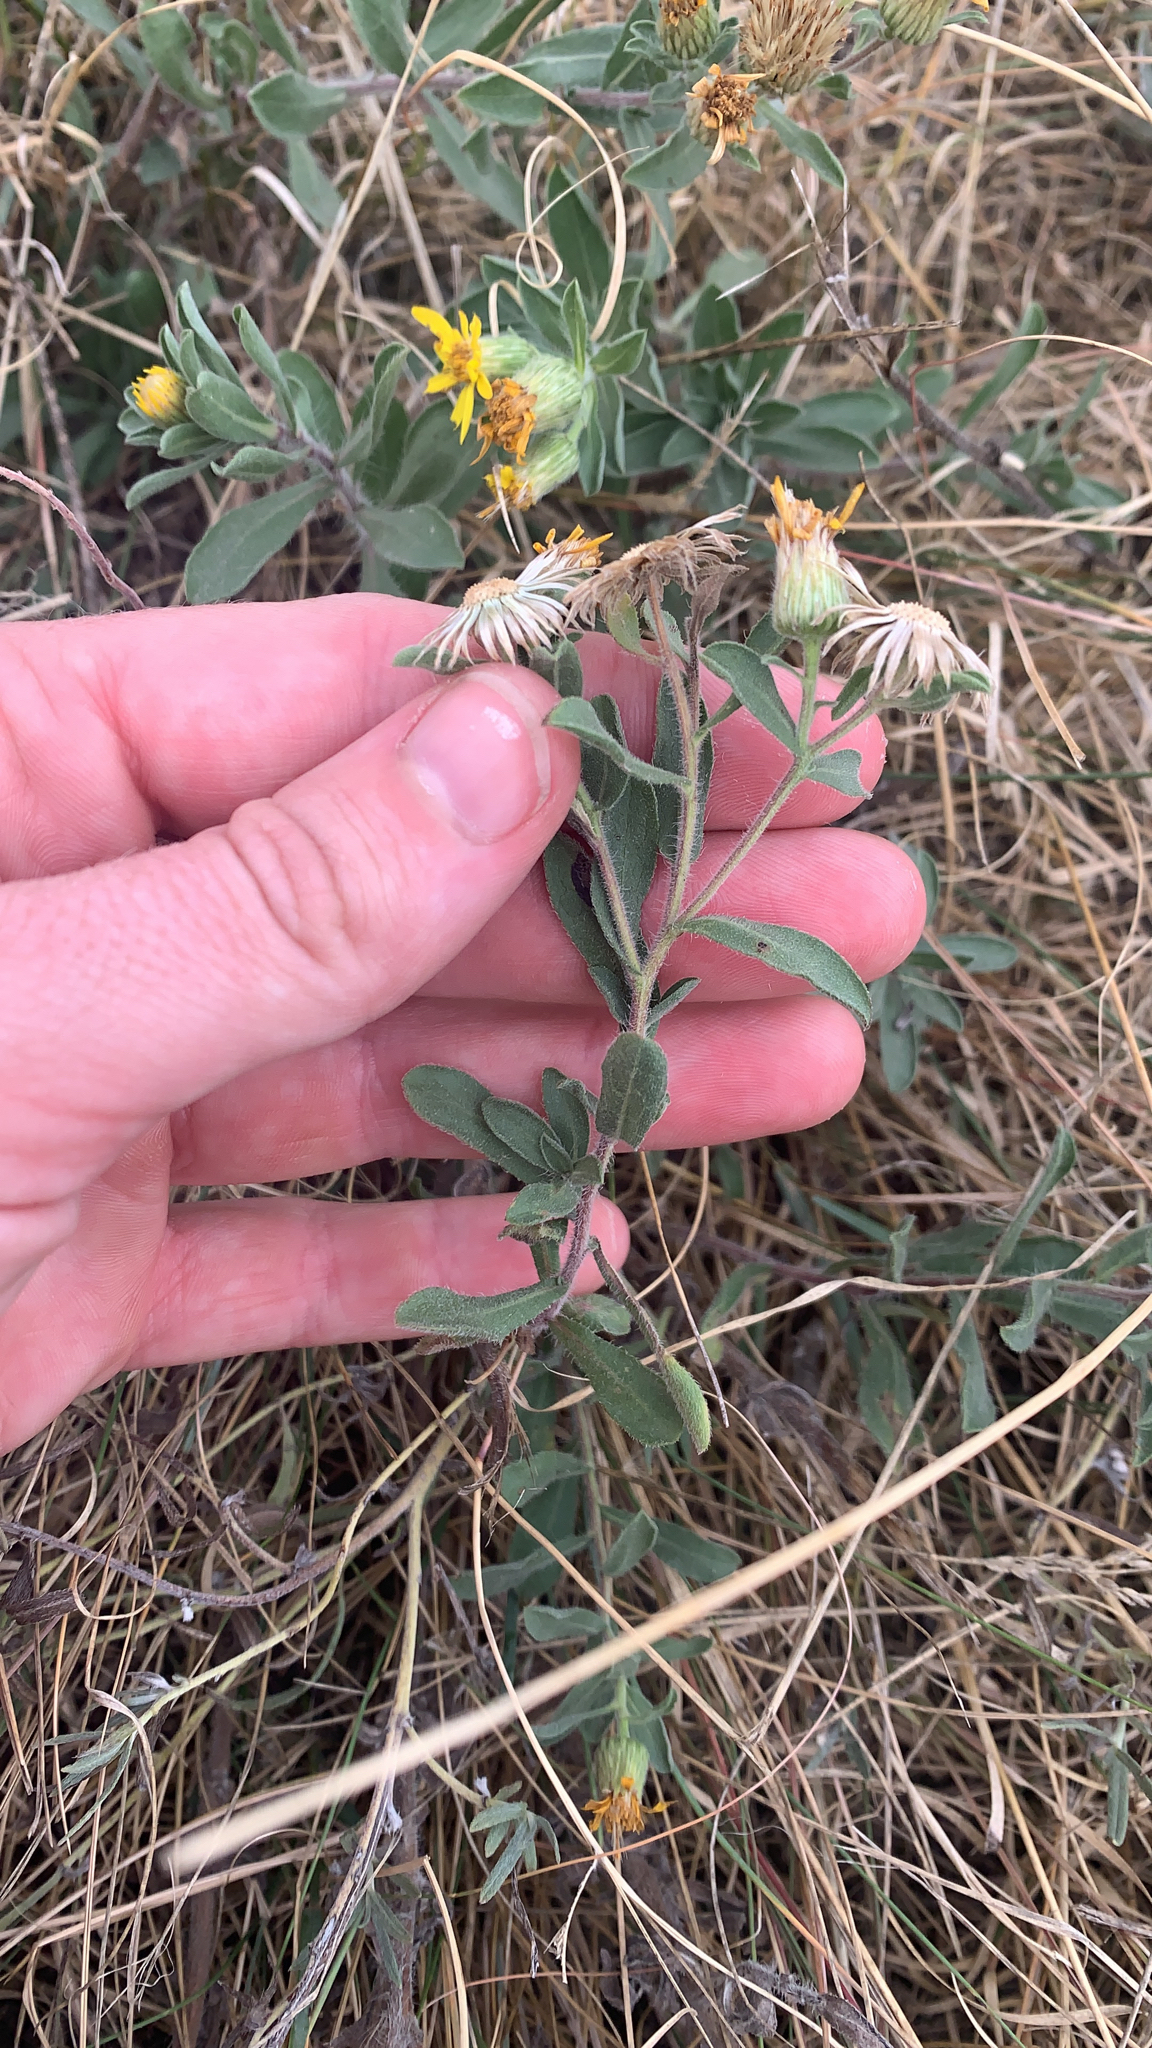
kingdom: Plantae
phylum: Tracheophyta
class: Magnoliopsida
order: Asterales
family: Asteraceae
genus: Heterotheca
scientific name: Heterotheca villosa
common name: Hairy false goldenaster
